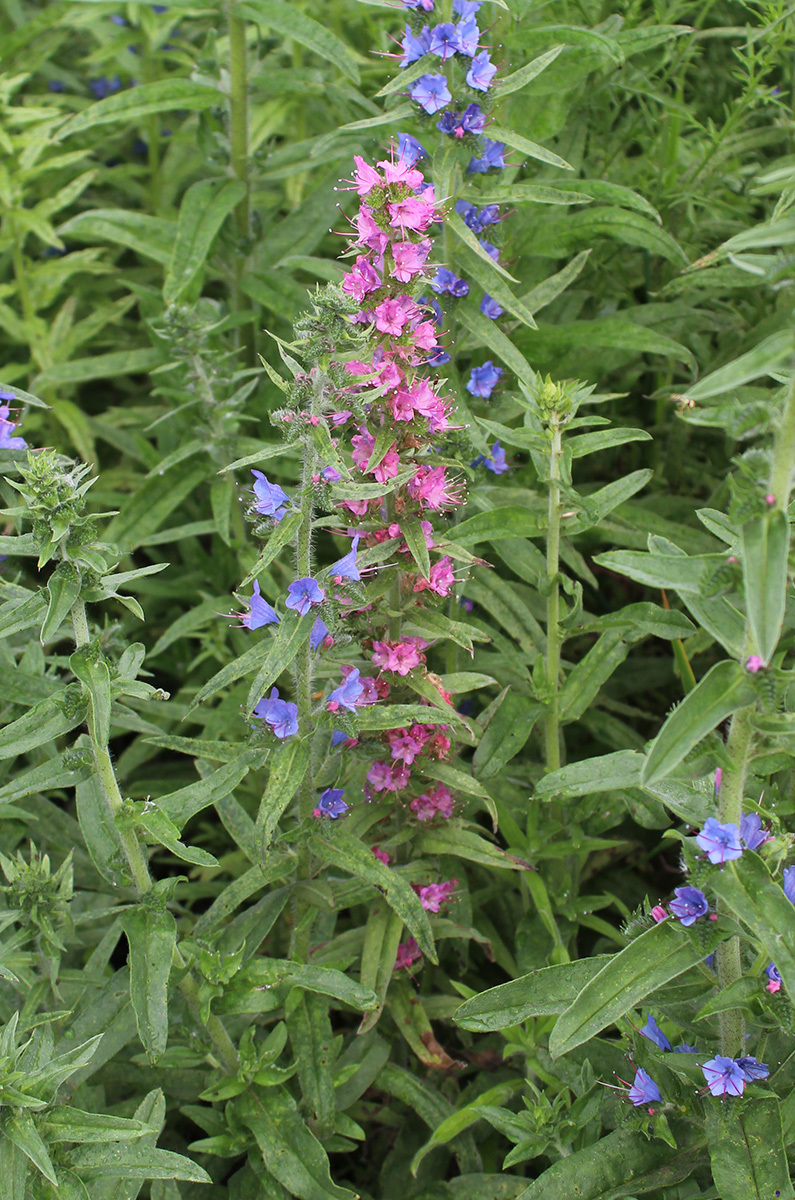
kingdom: Plantae
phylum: Tracheophyta
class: Magnoliopsida
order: Boraginales
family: Boraginaceae
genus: Echium
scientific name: Echium vulgare
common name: Common viper's bugloss
